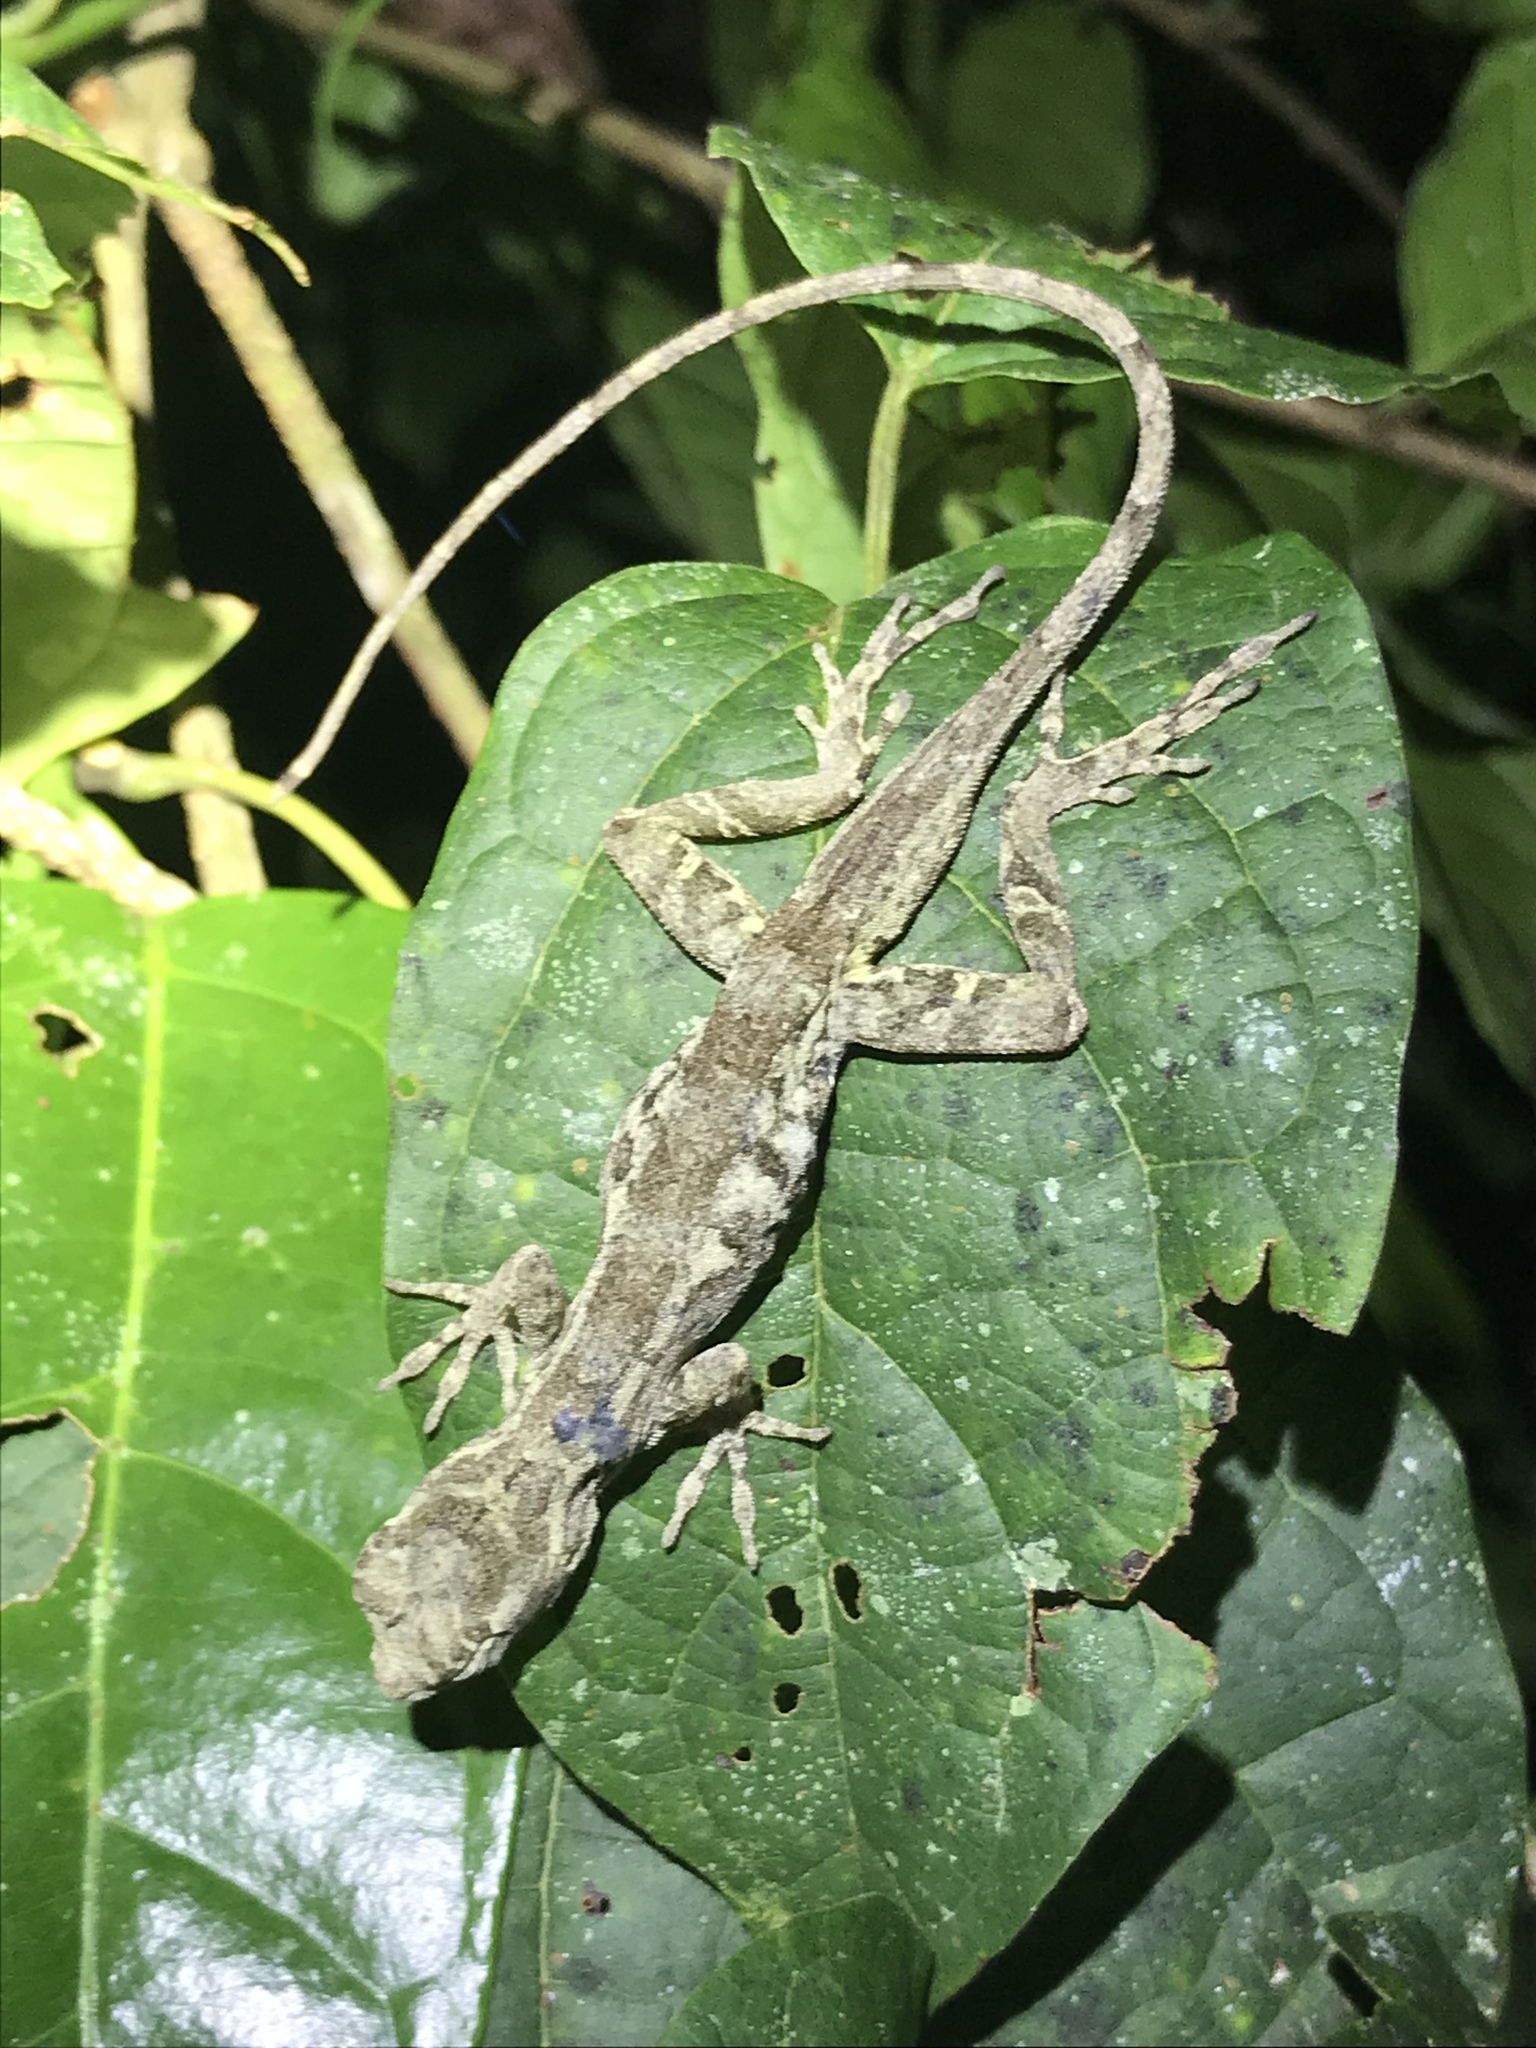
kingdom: Animalia
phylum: Chordata
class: Squamata
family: Dactyloidae
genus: Anolis
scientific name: Anolis lemurinus
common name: Ghost anole
